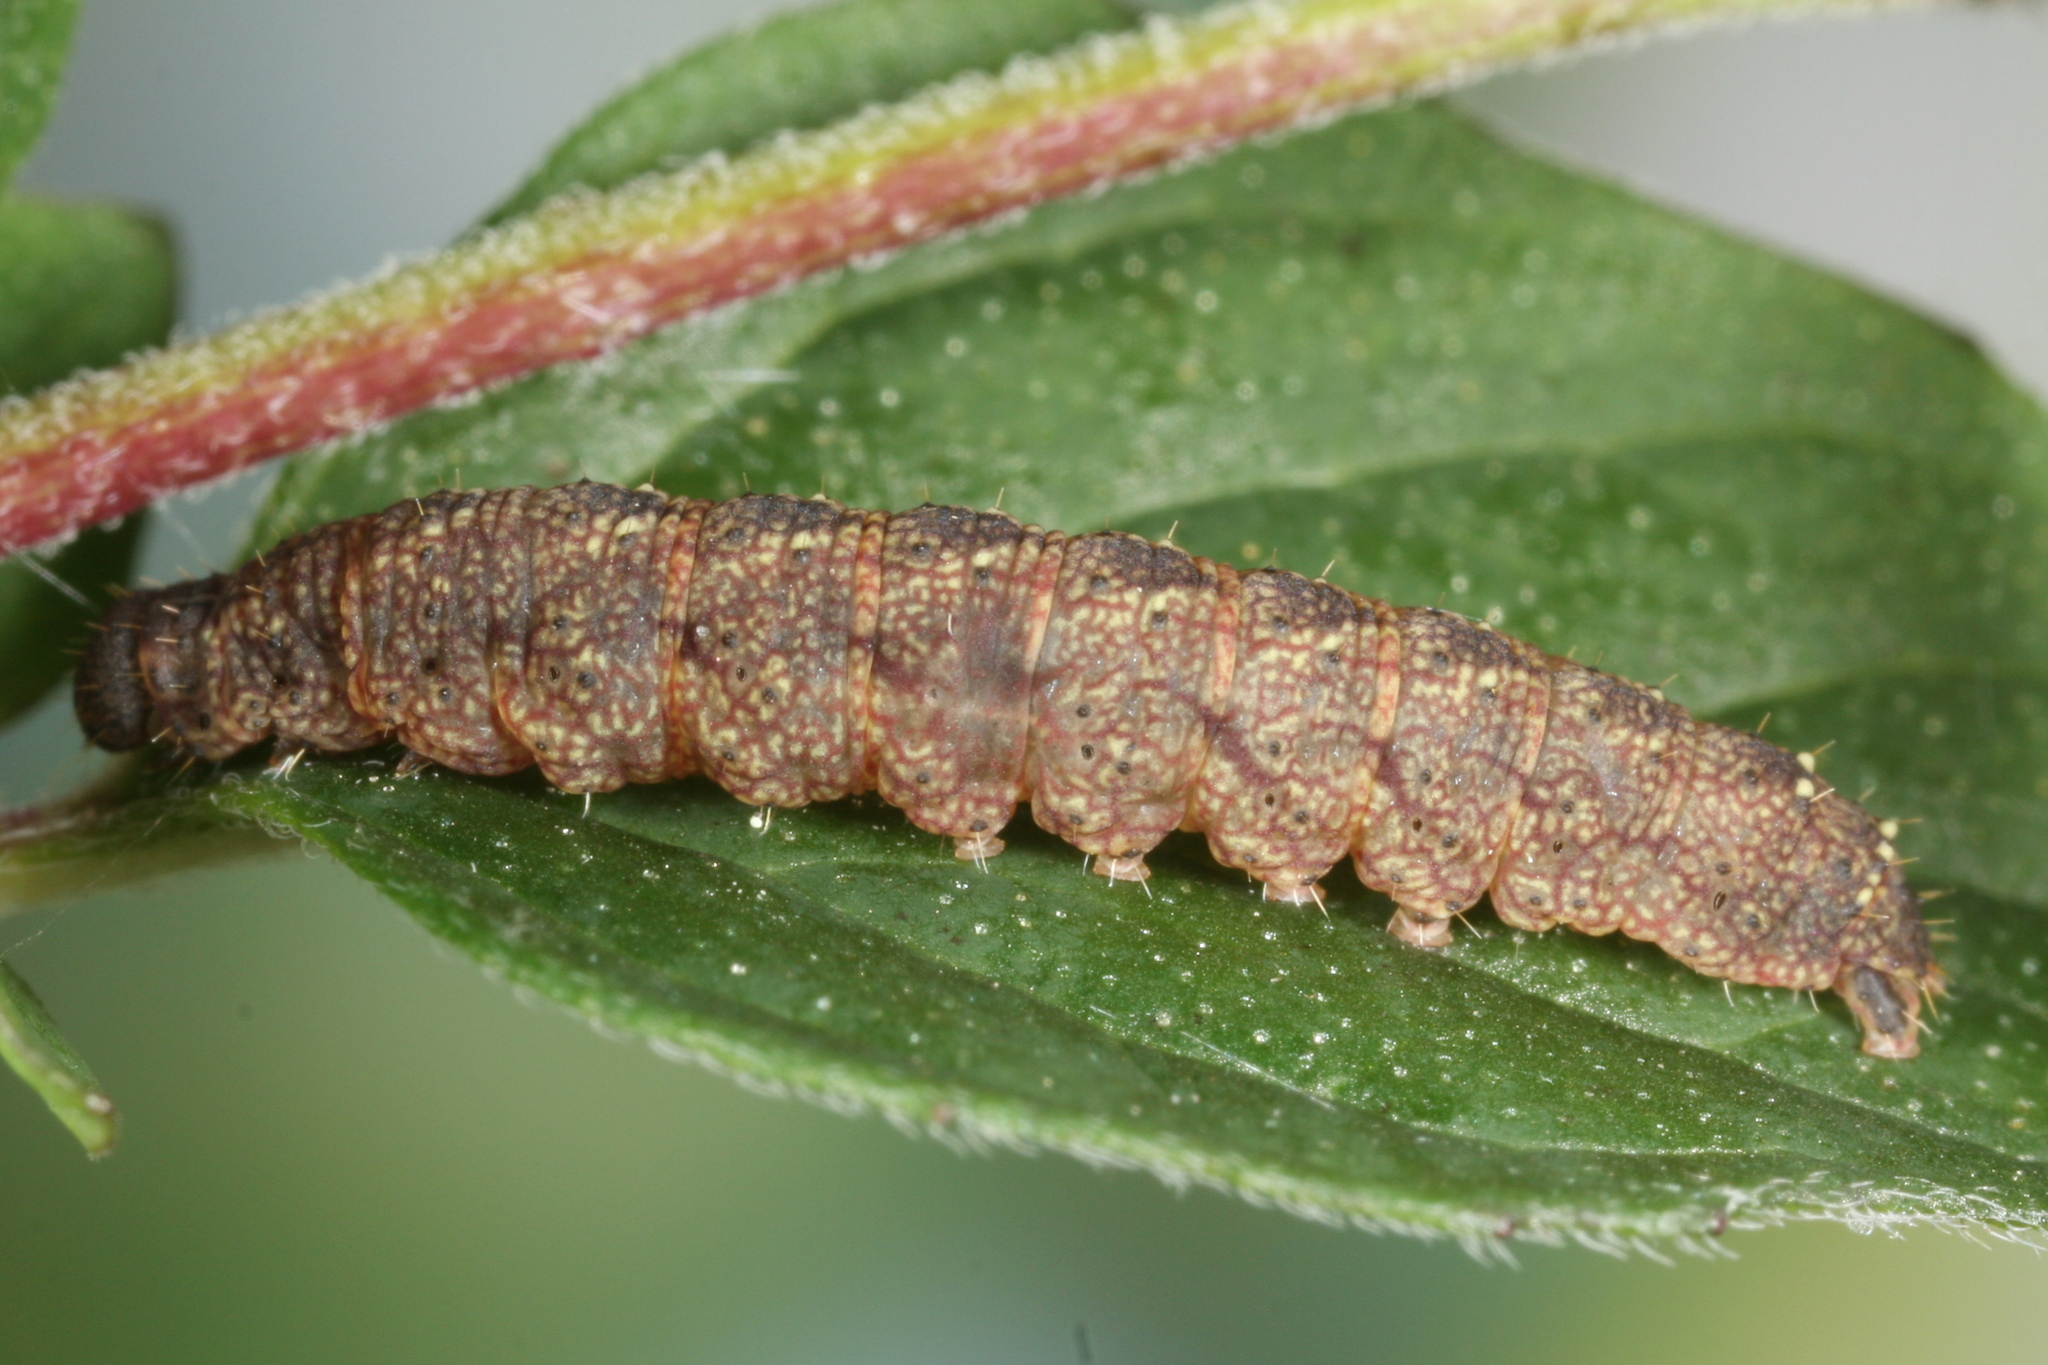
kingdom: Animalia
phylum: Arthropoda
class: Insecta
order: Lepidoptera
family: Erebidae
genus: Herminia
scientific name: Herminia tarsicrinalis
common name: Shaded fan-foot
